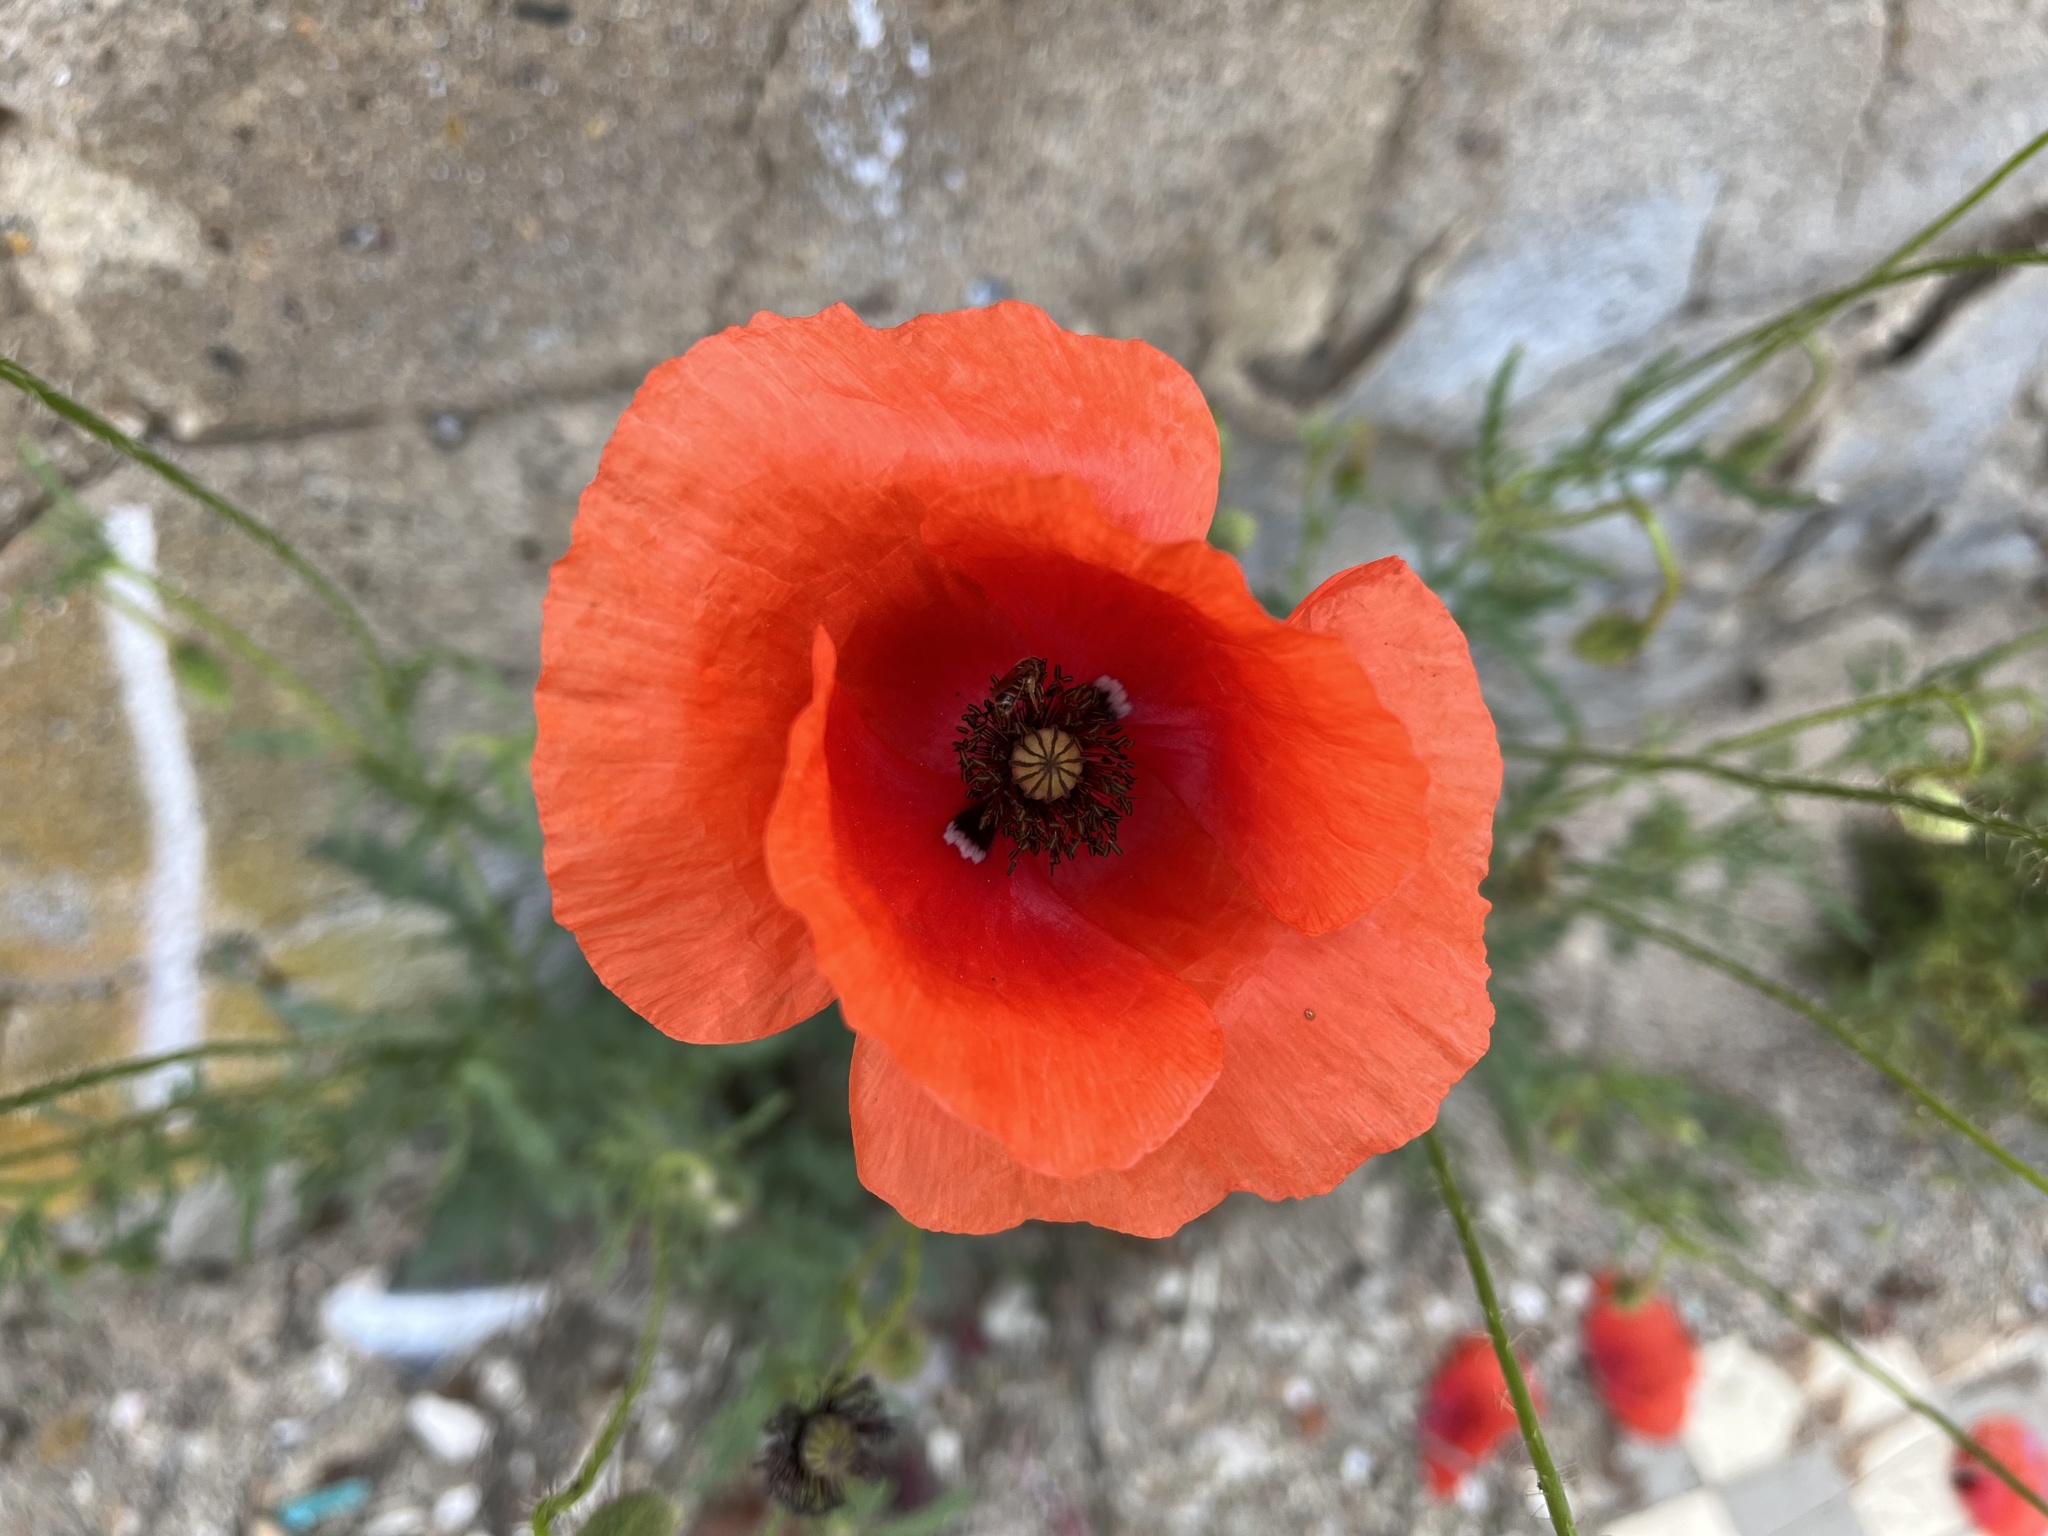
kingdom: Plantae
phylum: Tracheophyta
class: Magnoliopsida
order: Ranunculales
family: Papaveraceae
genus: Papaver
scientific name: Papaver rhoeas
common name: Corn poppy
